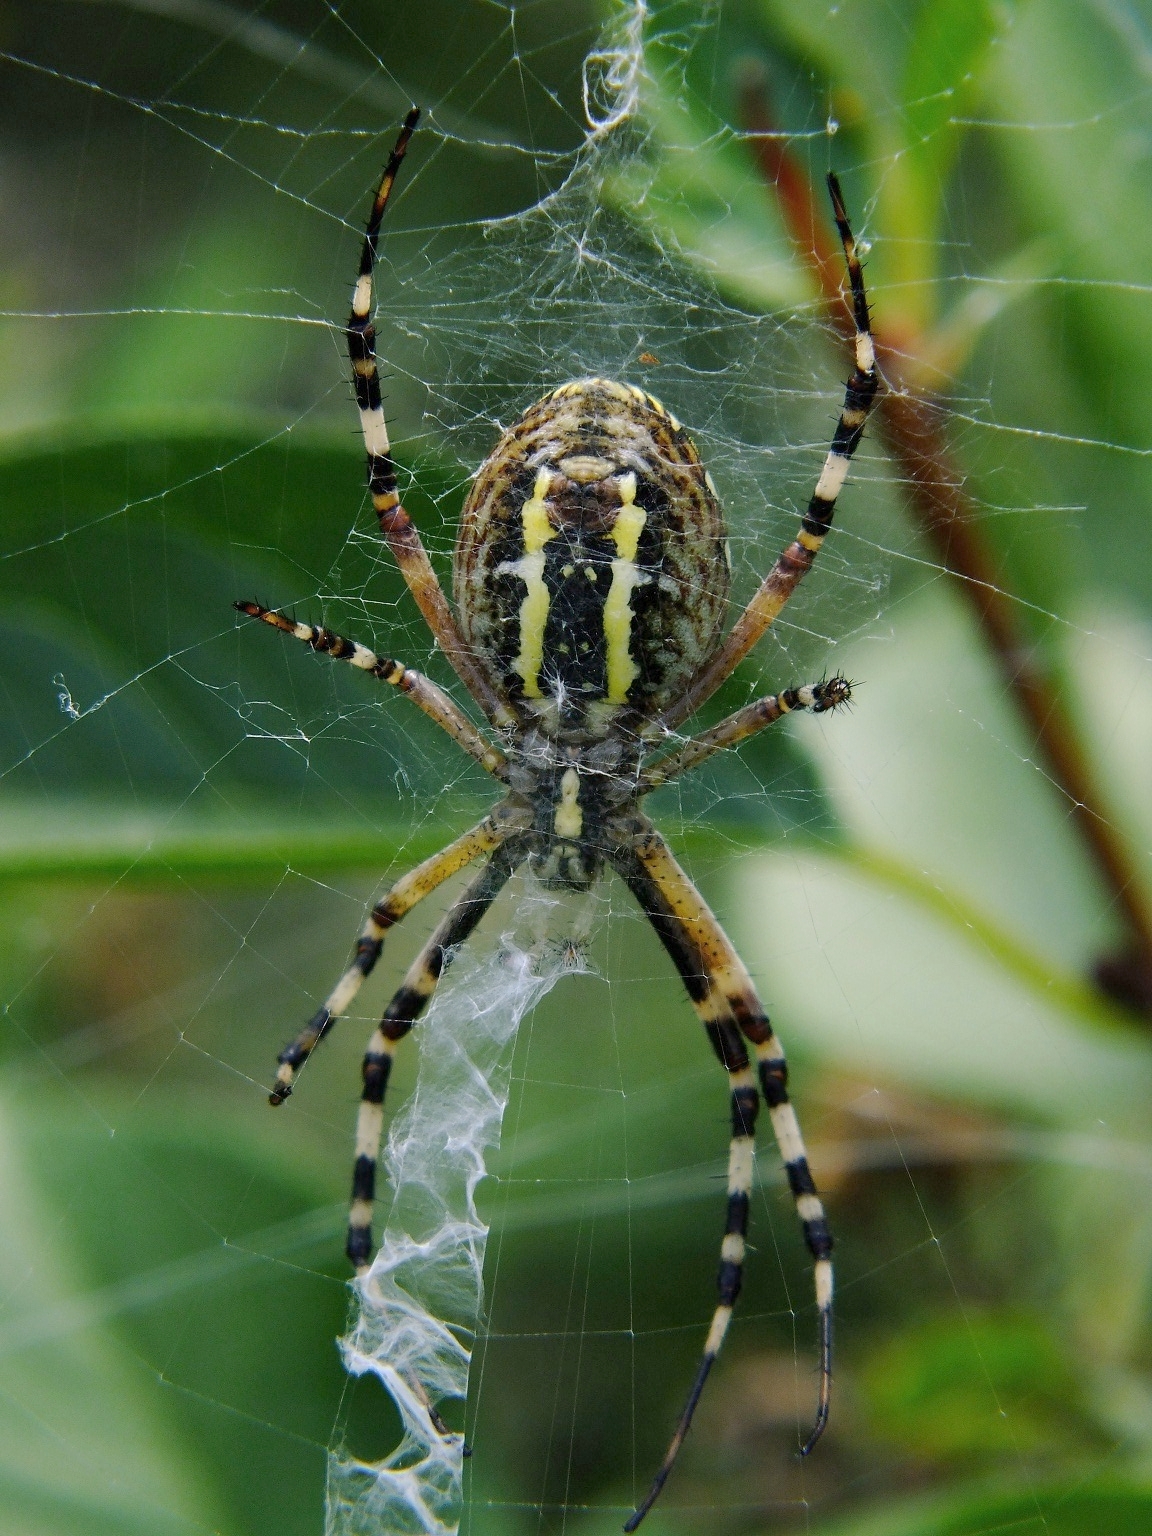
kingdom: Animalia
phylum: Arthropoda
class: Arachnida
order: Araneae
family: Araneidae
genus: Argiope
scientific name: Argiope bruennichi
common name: Wasp spider
